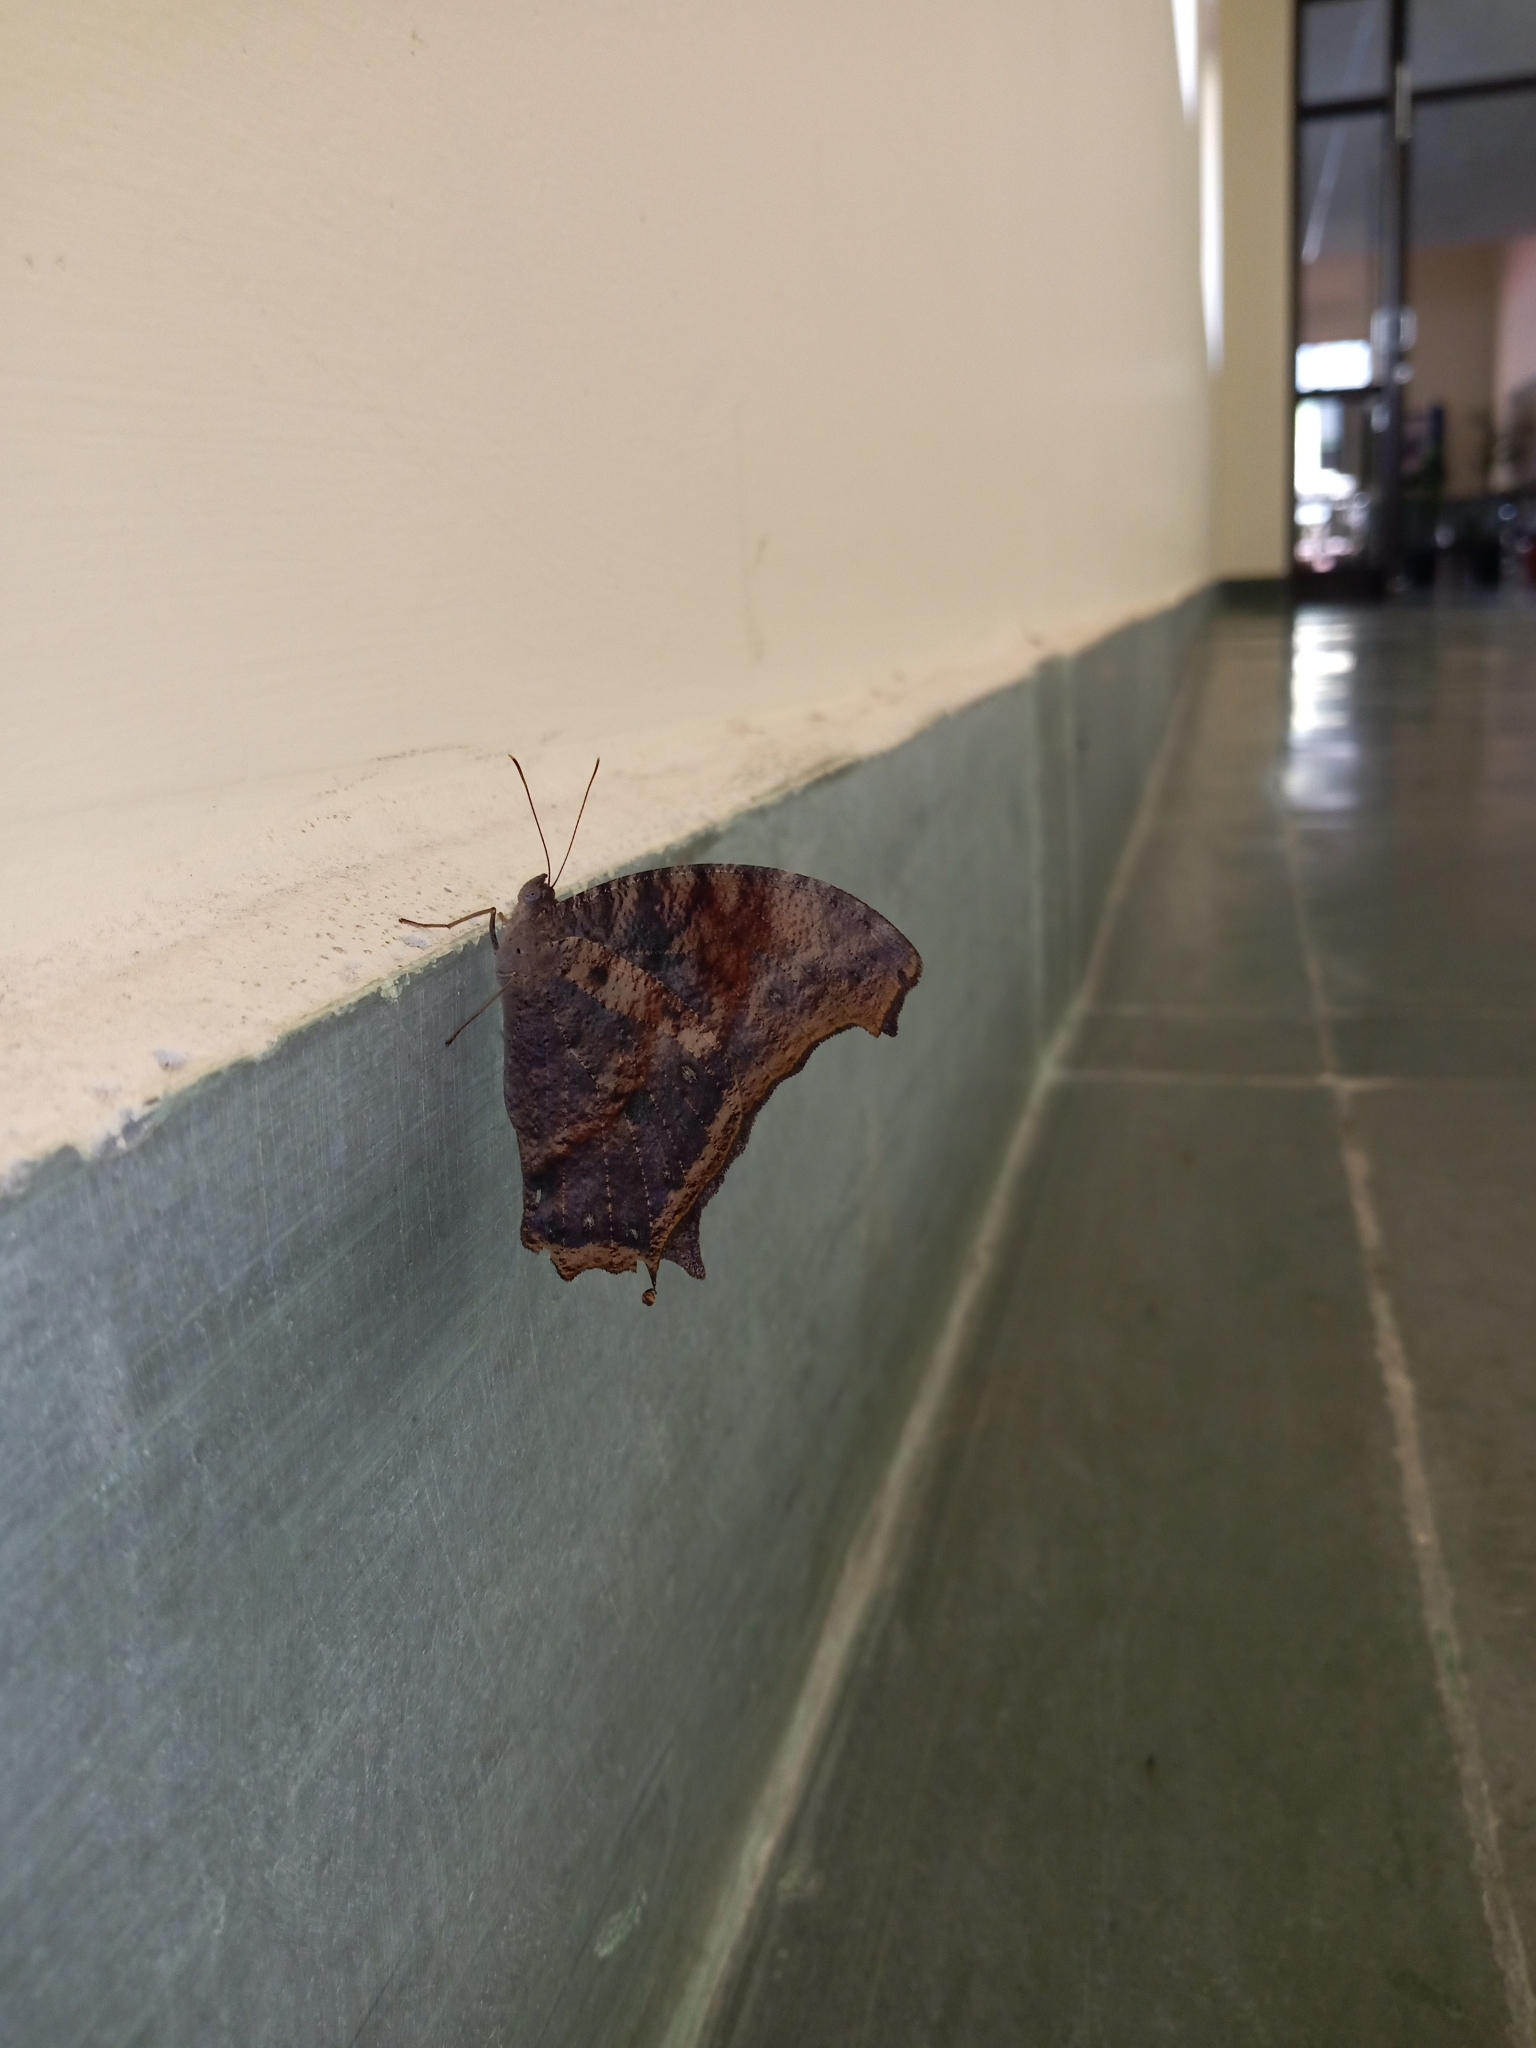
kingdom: Animalia
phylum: Arthropoda
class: Insecta
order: Lepidoptera
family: Nymphalidae
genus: Melanitis
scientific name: Melanitis leda
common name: Twilight brown
